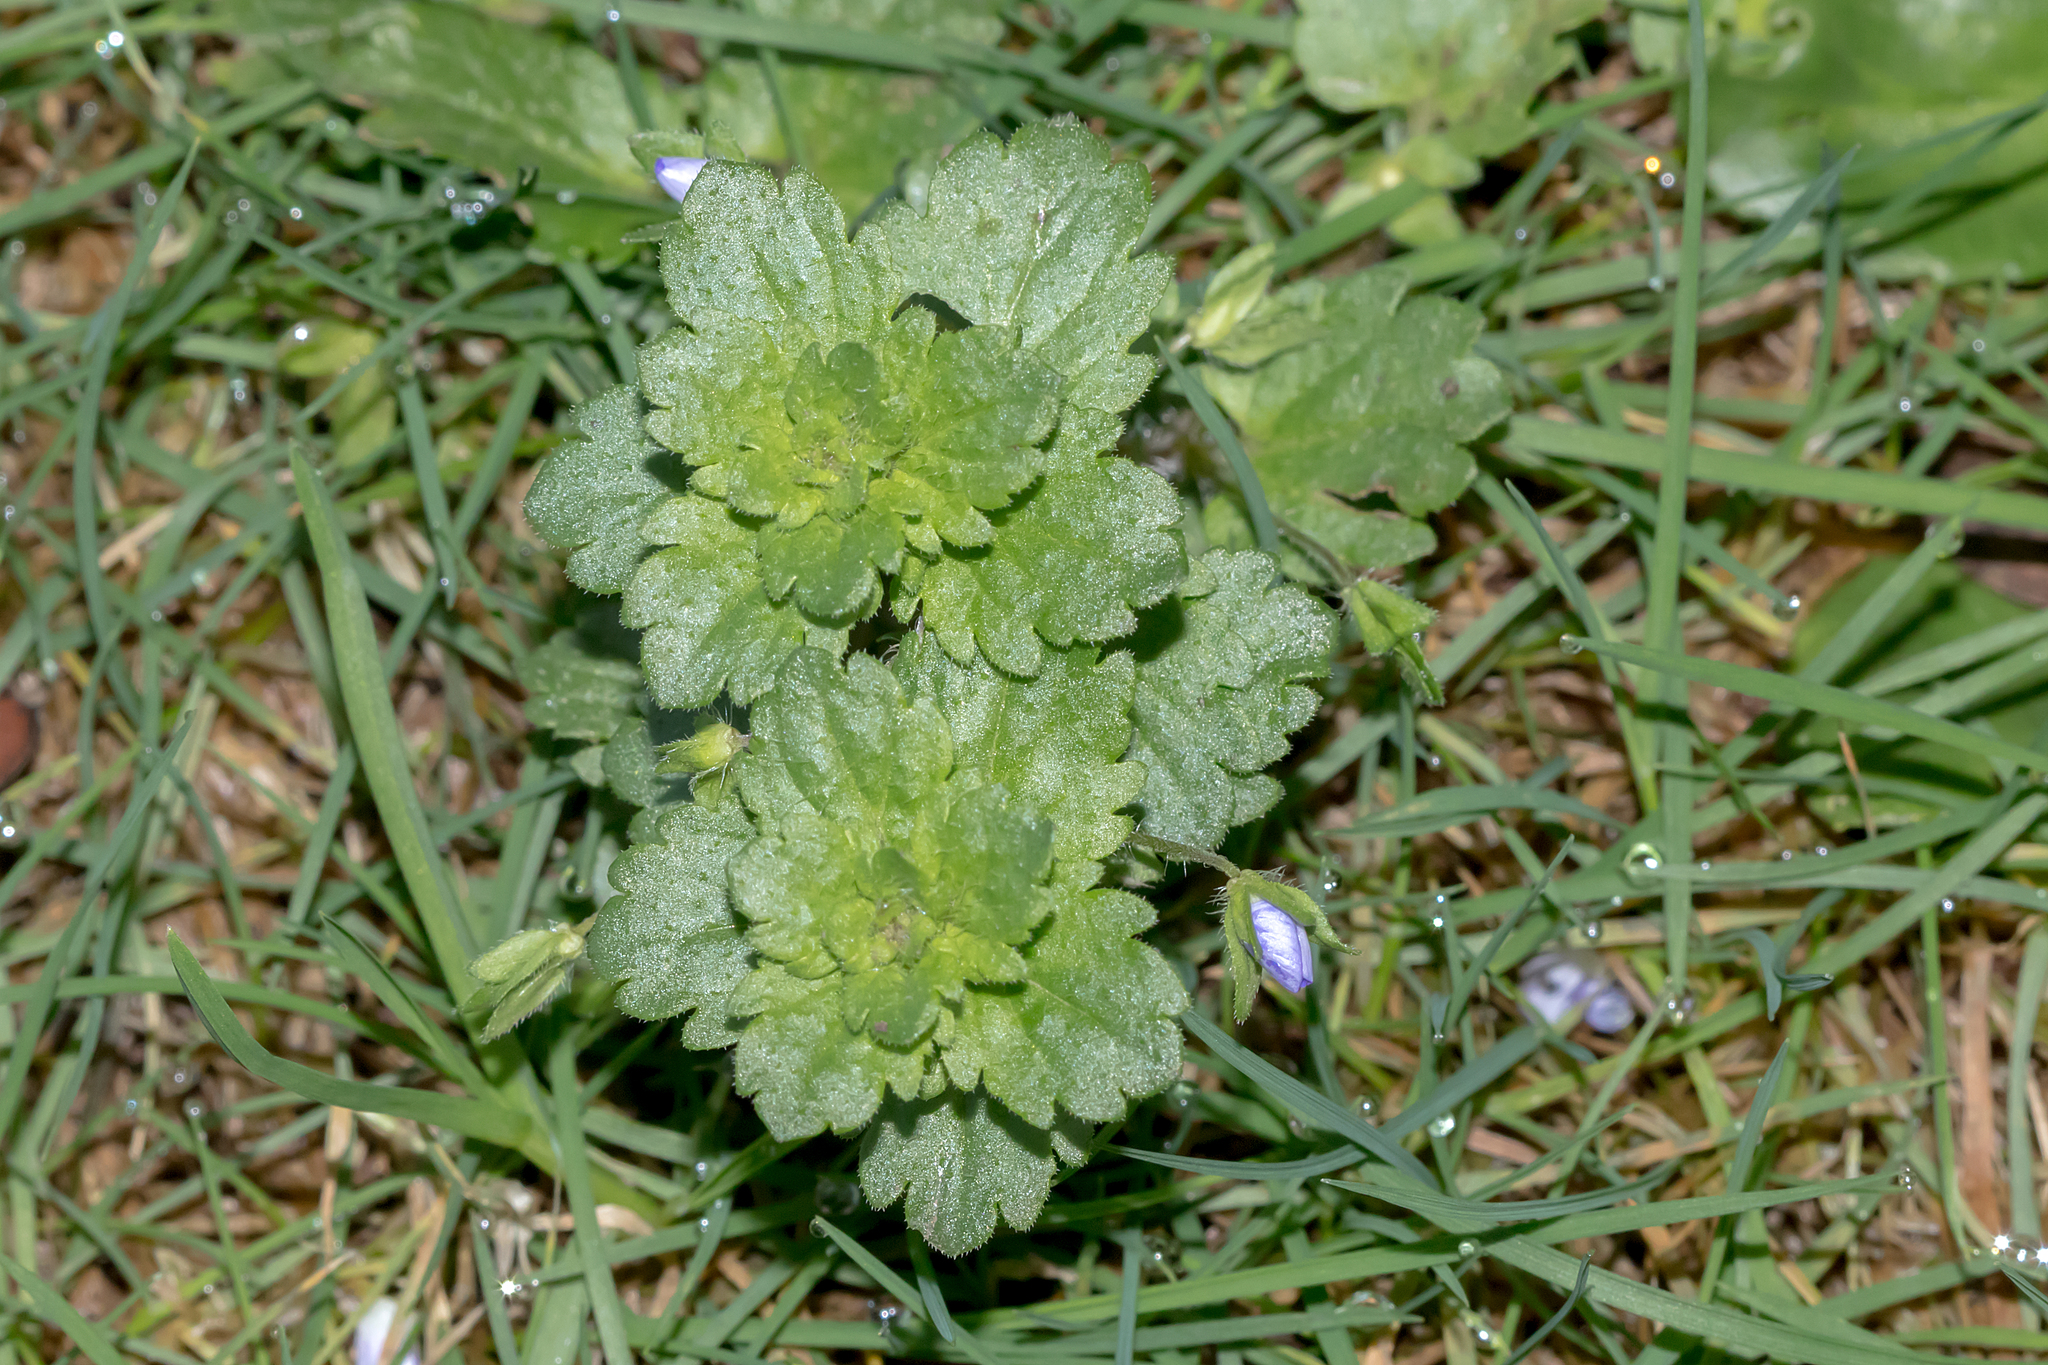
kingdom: Plantae
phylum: Tracheophyta
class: Magnoliopsida
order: Lamiales
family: Plantaginaceae
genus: Veronica
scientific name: Veronica persica
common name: Common field-speedwell
